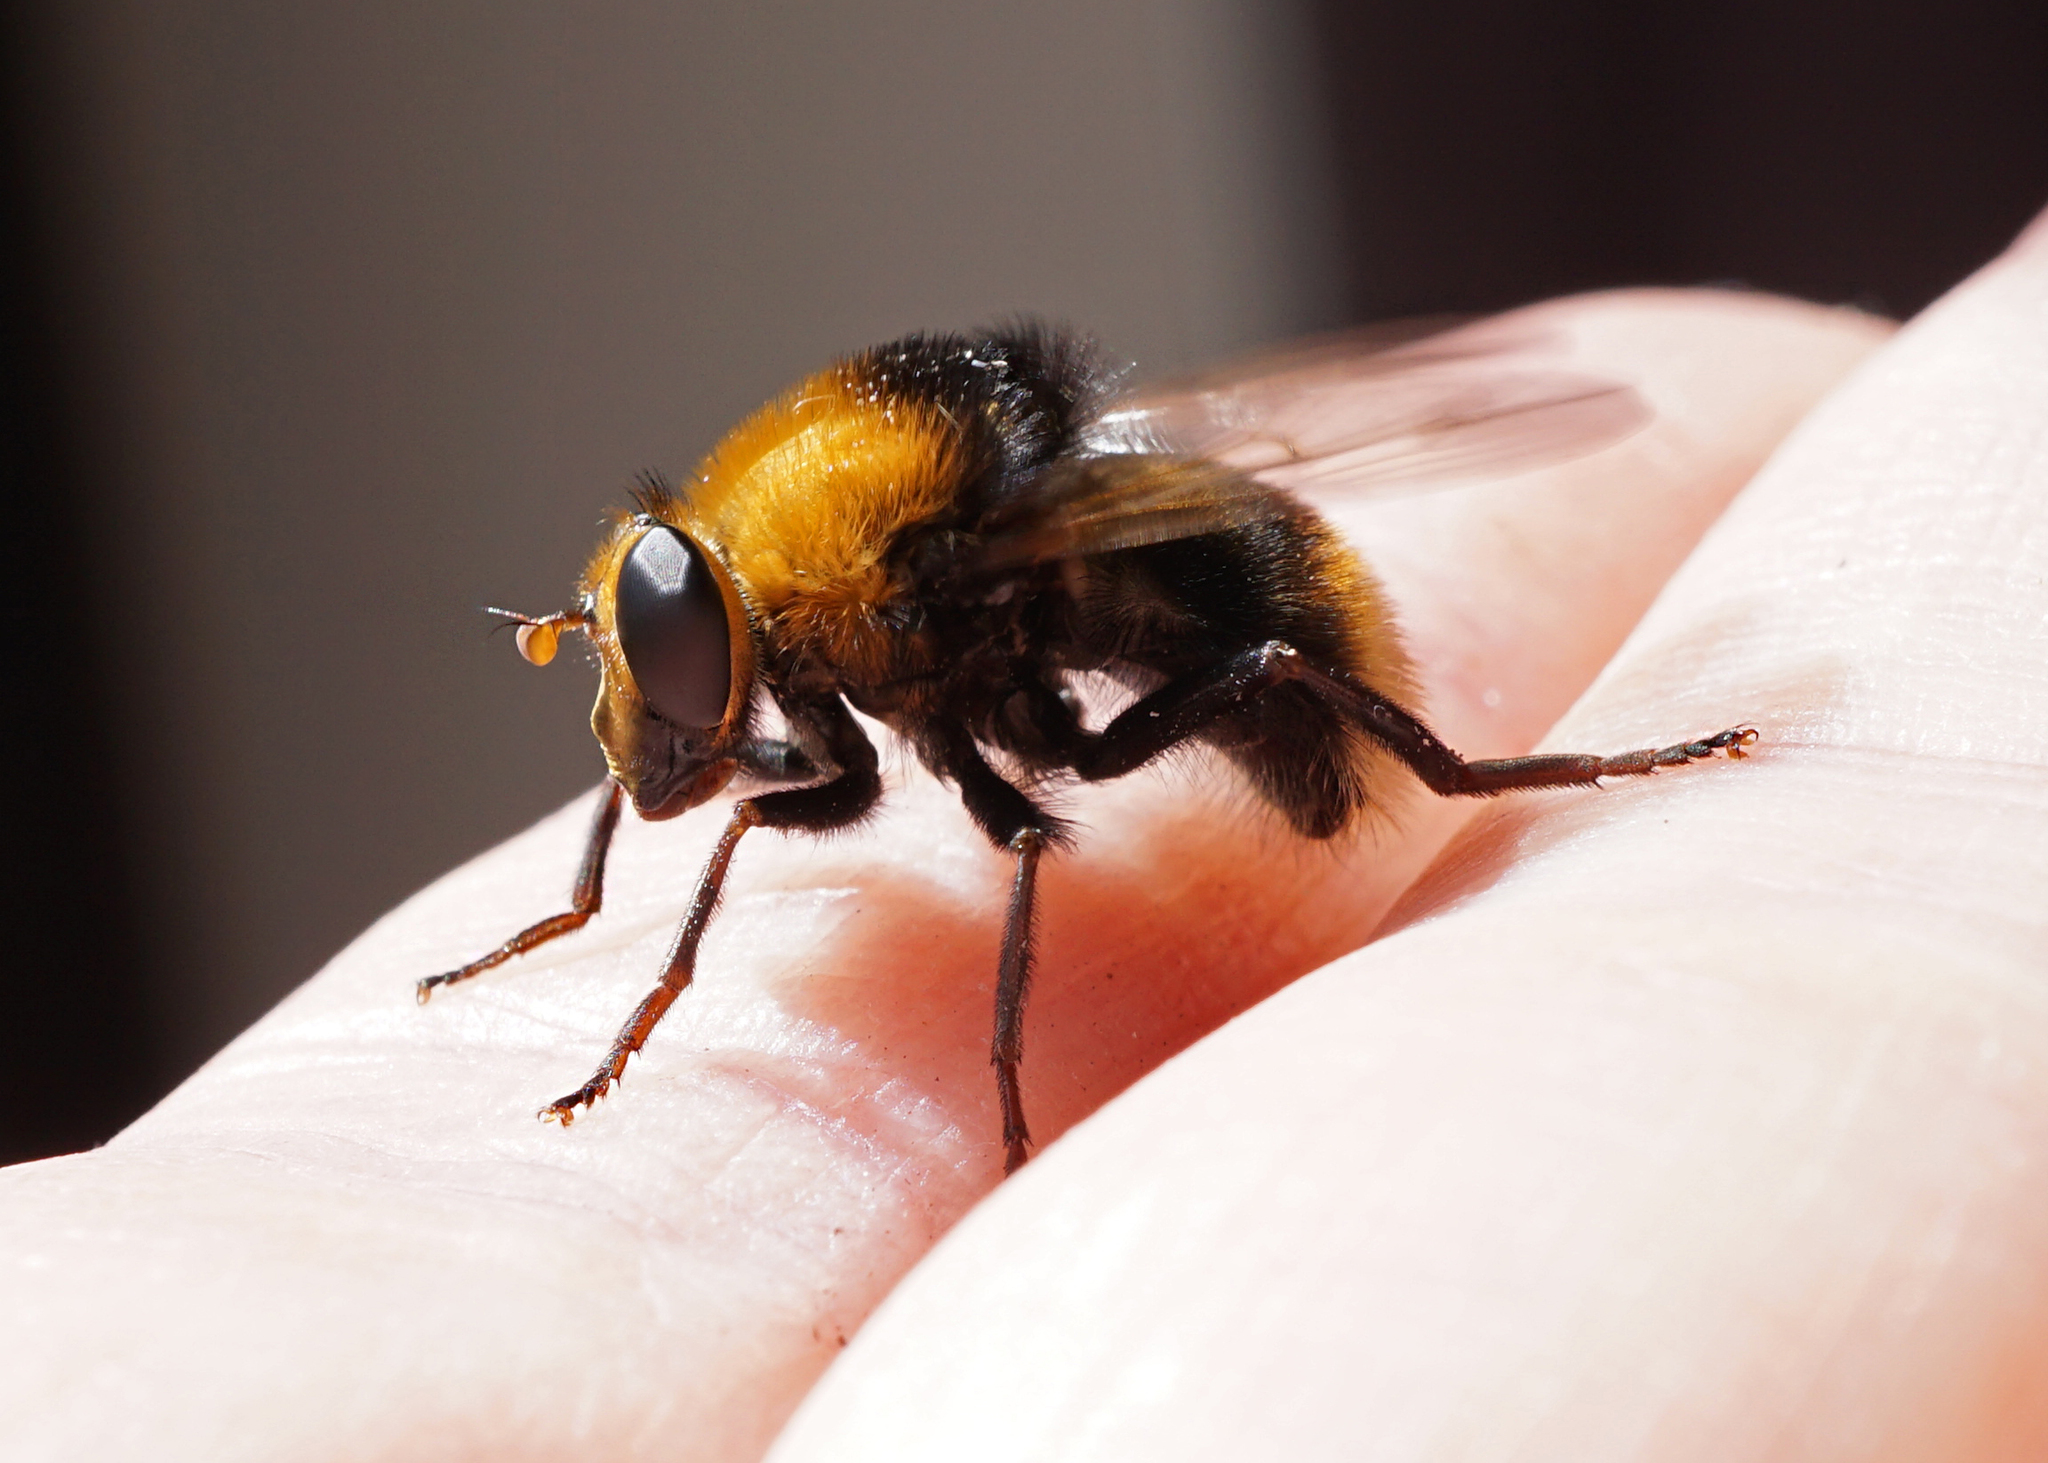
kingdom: Animalia
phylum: Arthropoda
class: Insecta
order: Diptera
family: Syrphidae
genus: Criorhina
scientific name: Criorhina berberina
